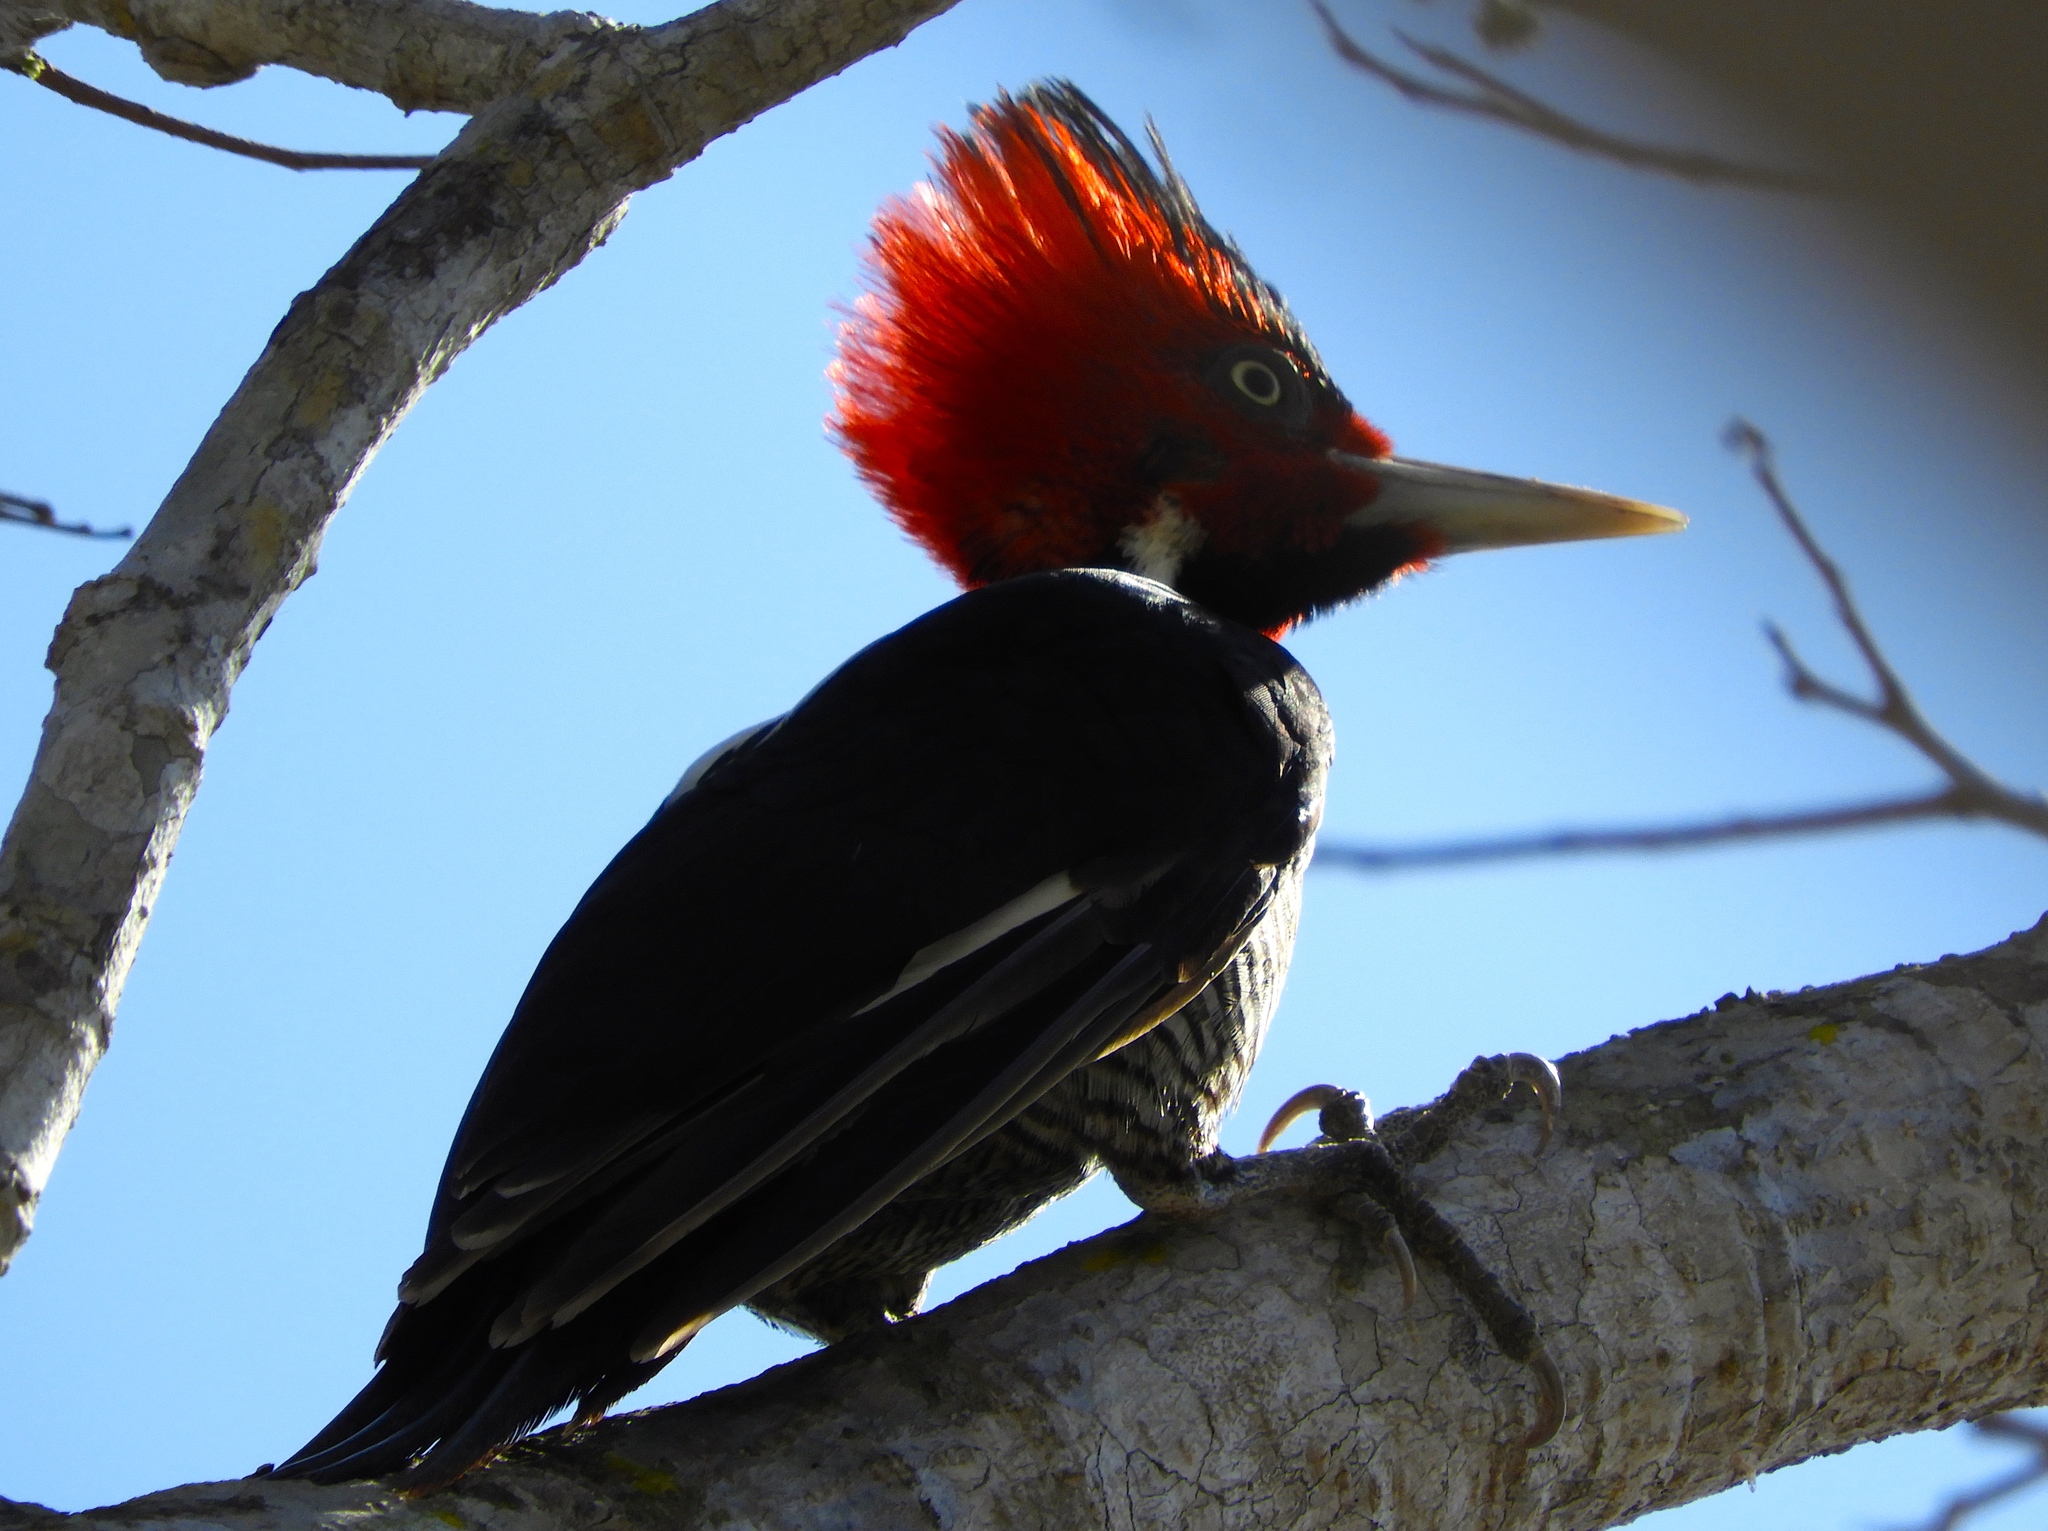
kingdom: Animalia
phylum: Chordata
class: Aves
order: Piciformes
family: Picidae
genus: Campephilus
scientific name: Campephilus guatemalensis
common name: Pale-billed woodpecker
